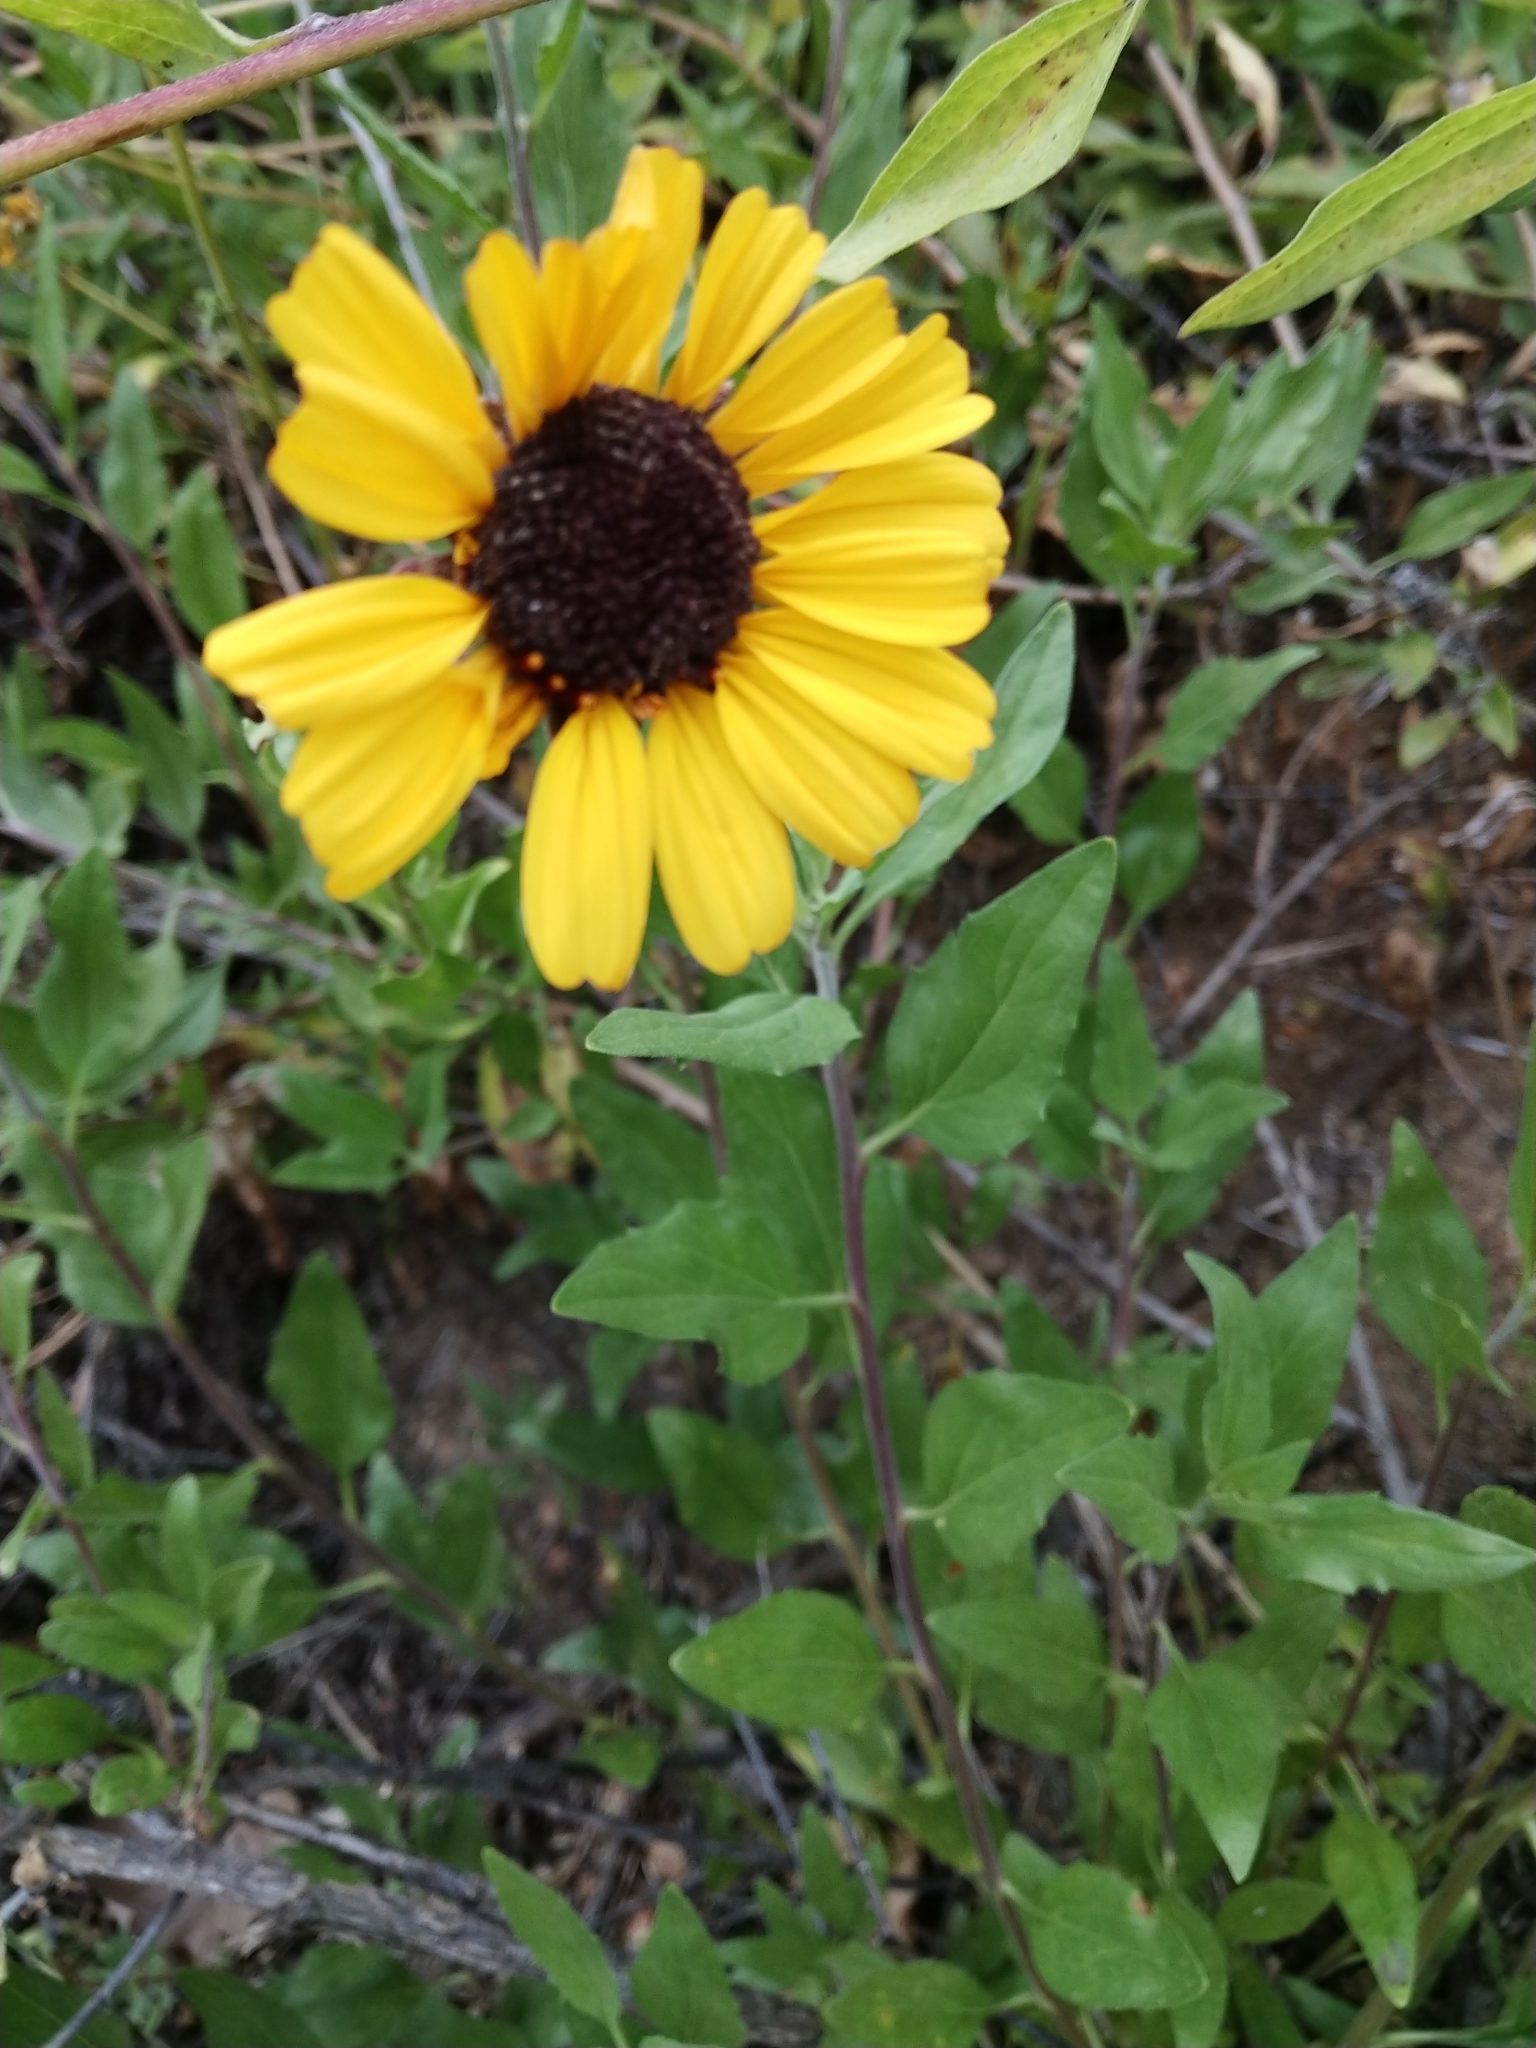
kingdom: Plantae
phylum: Tracheophyta
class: Magnoliopsida
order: Asterales
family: Asteraceae
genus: Encelia
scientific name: Encelia californica
